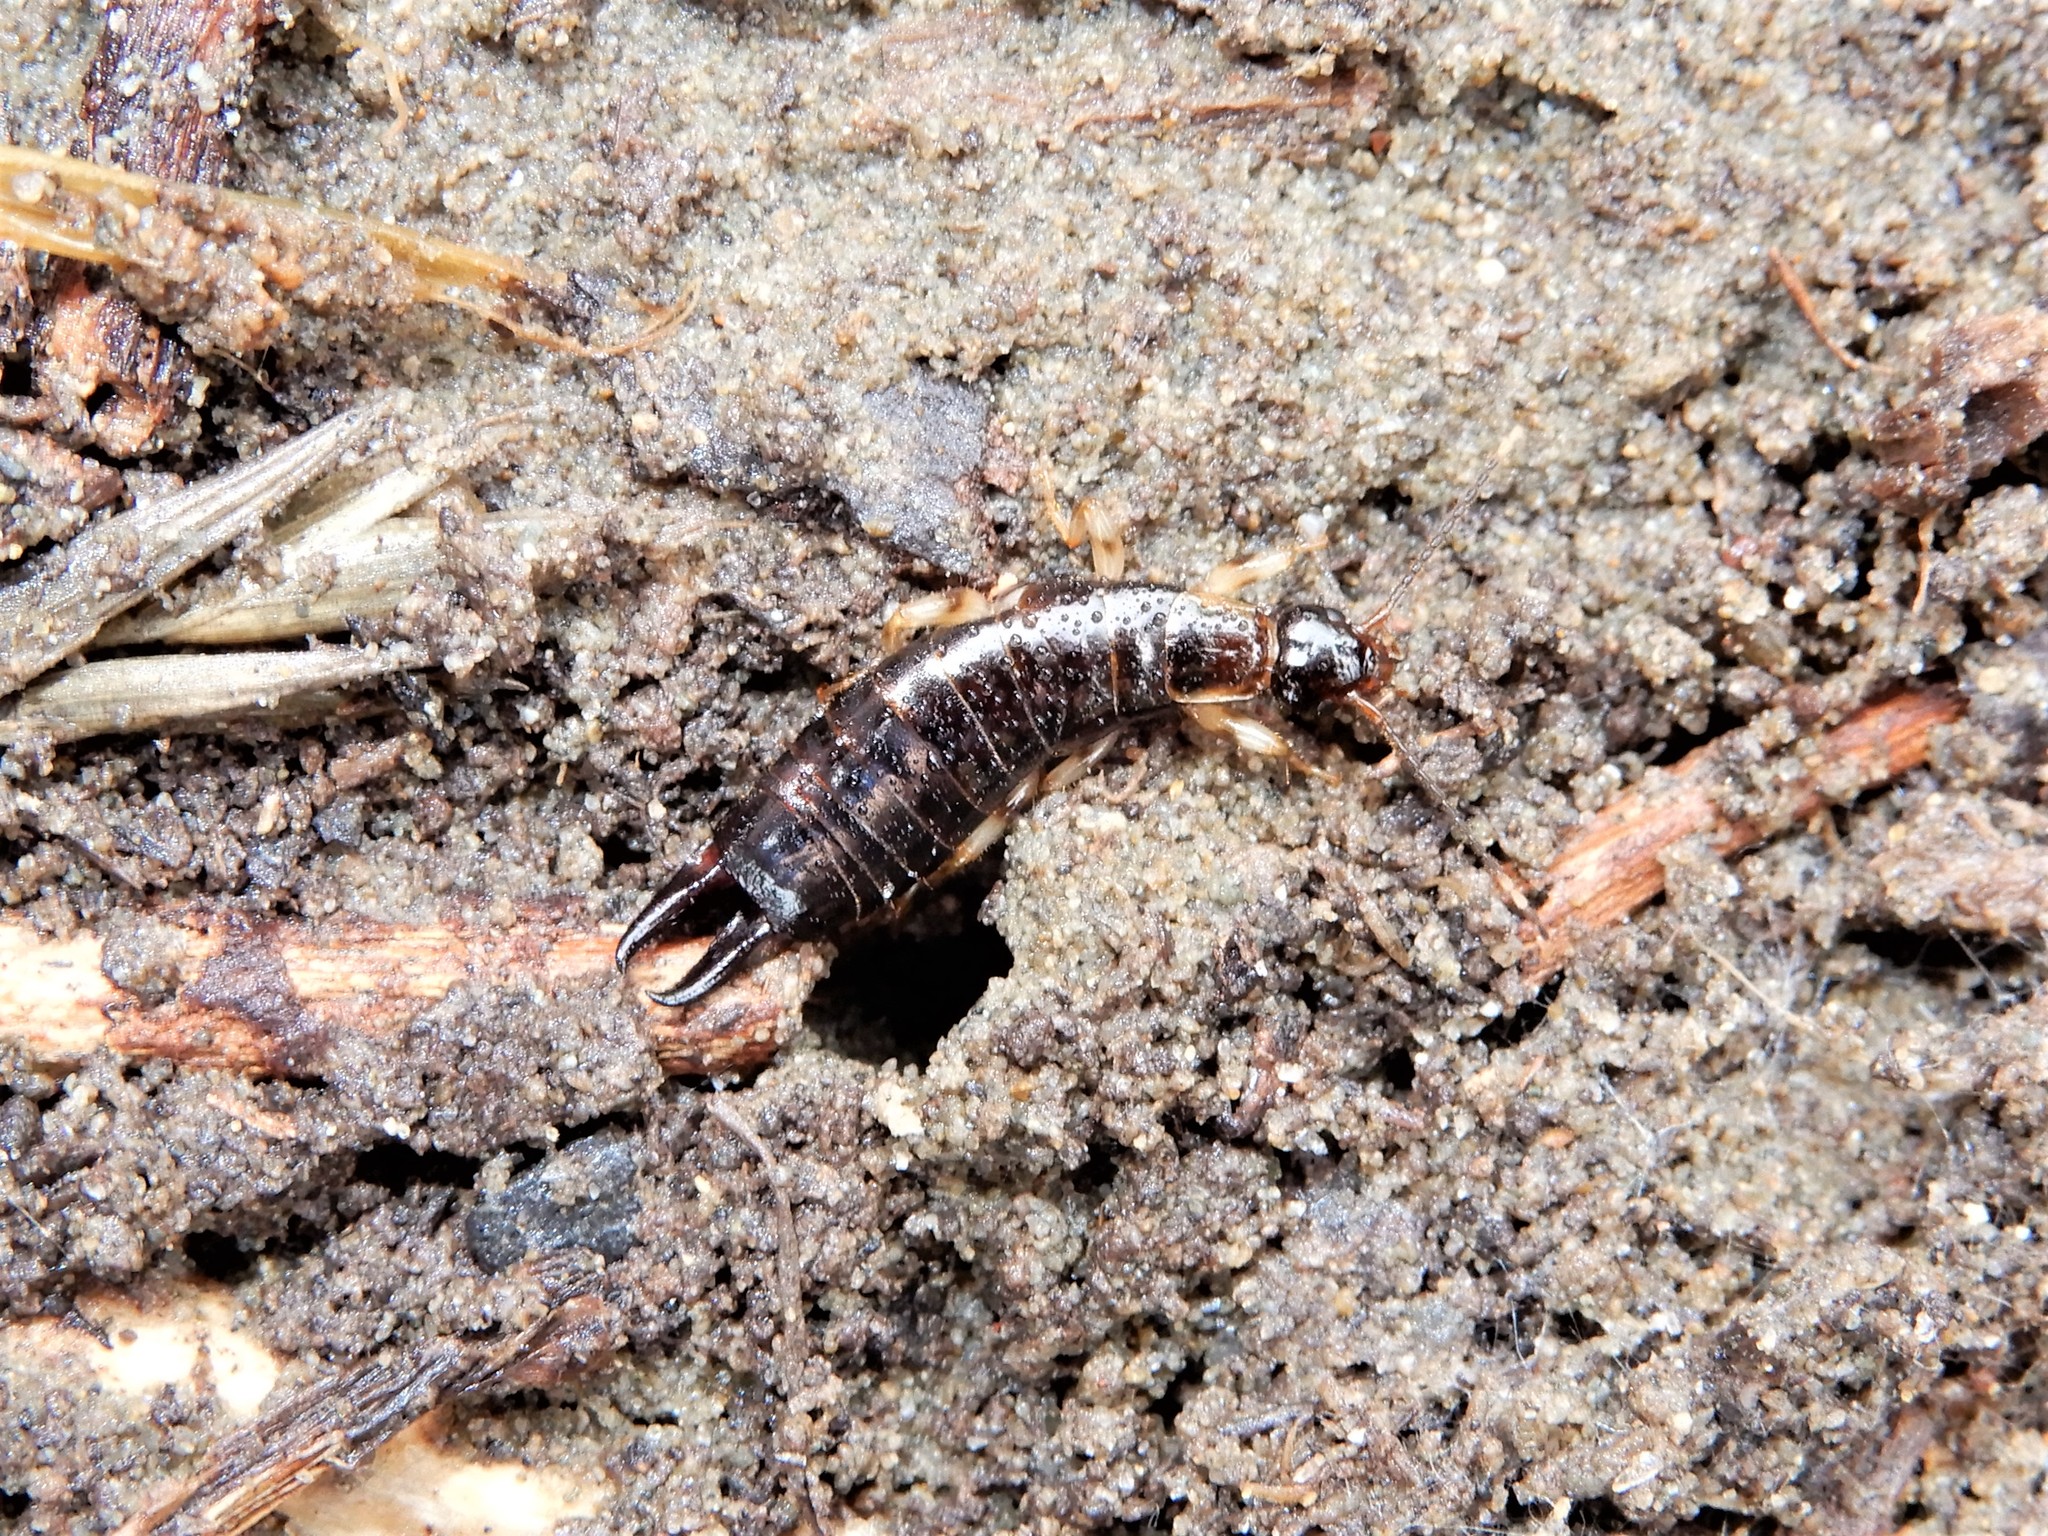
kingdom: Animalia
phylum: Arthropoda
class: Insecta
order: Dermaptera
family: Anisolabididae
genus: Euborellia
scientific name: Euborellia annulipes
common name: Ringlegged earwig
